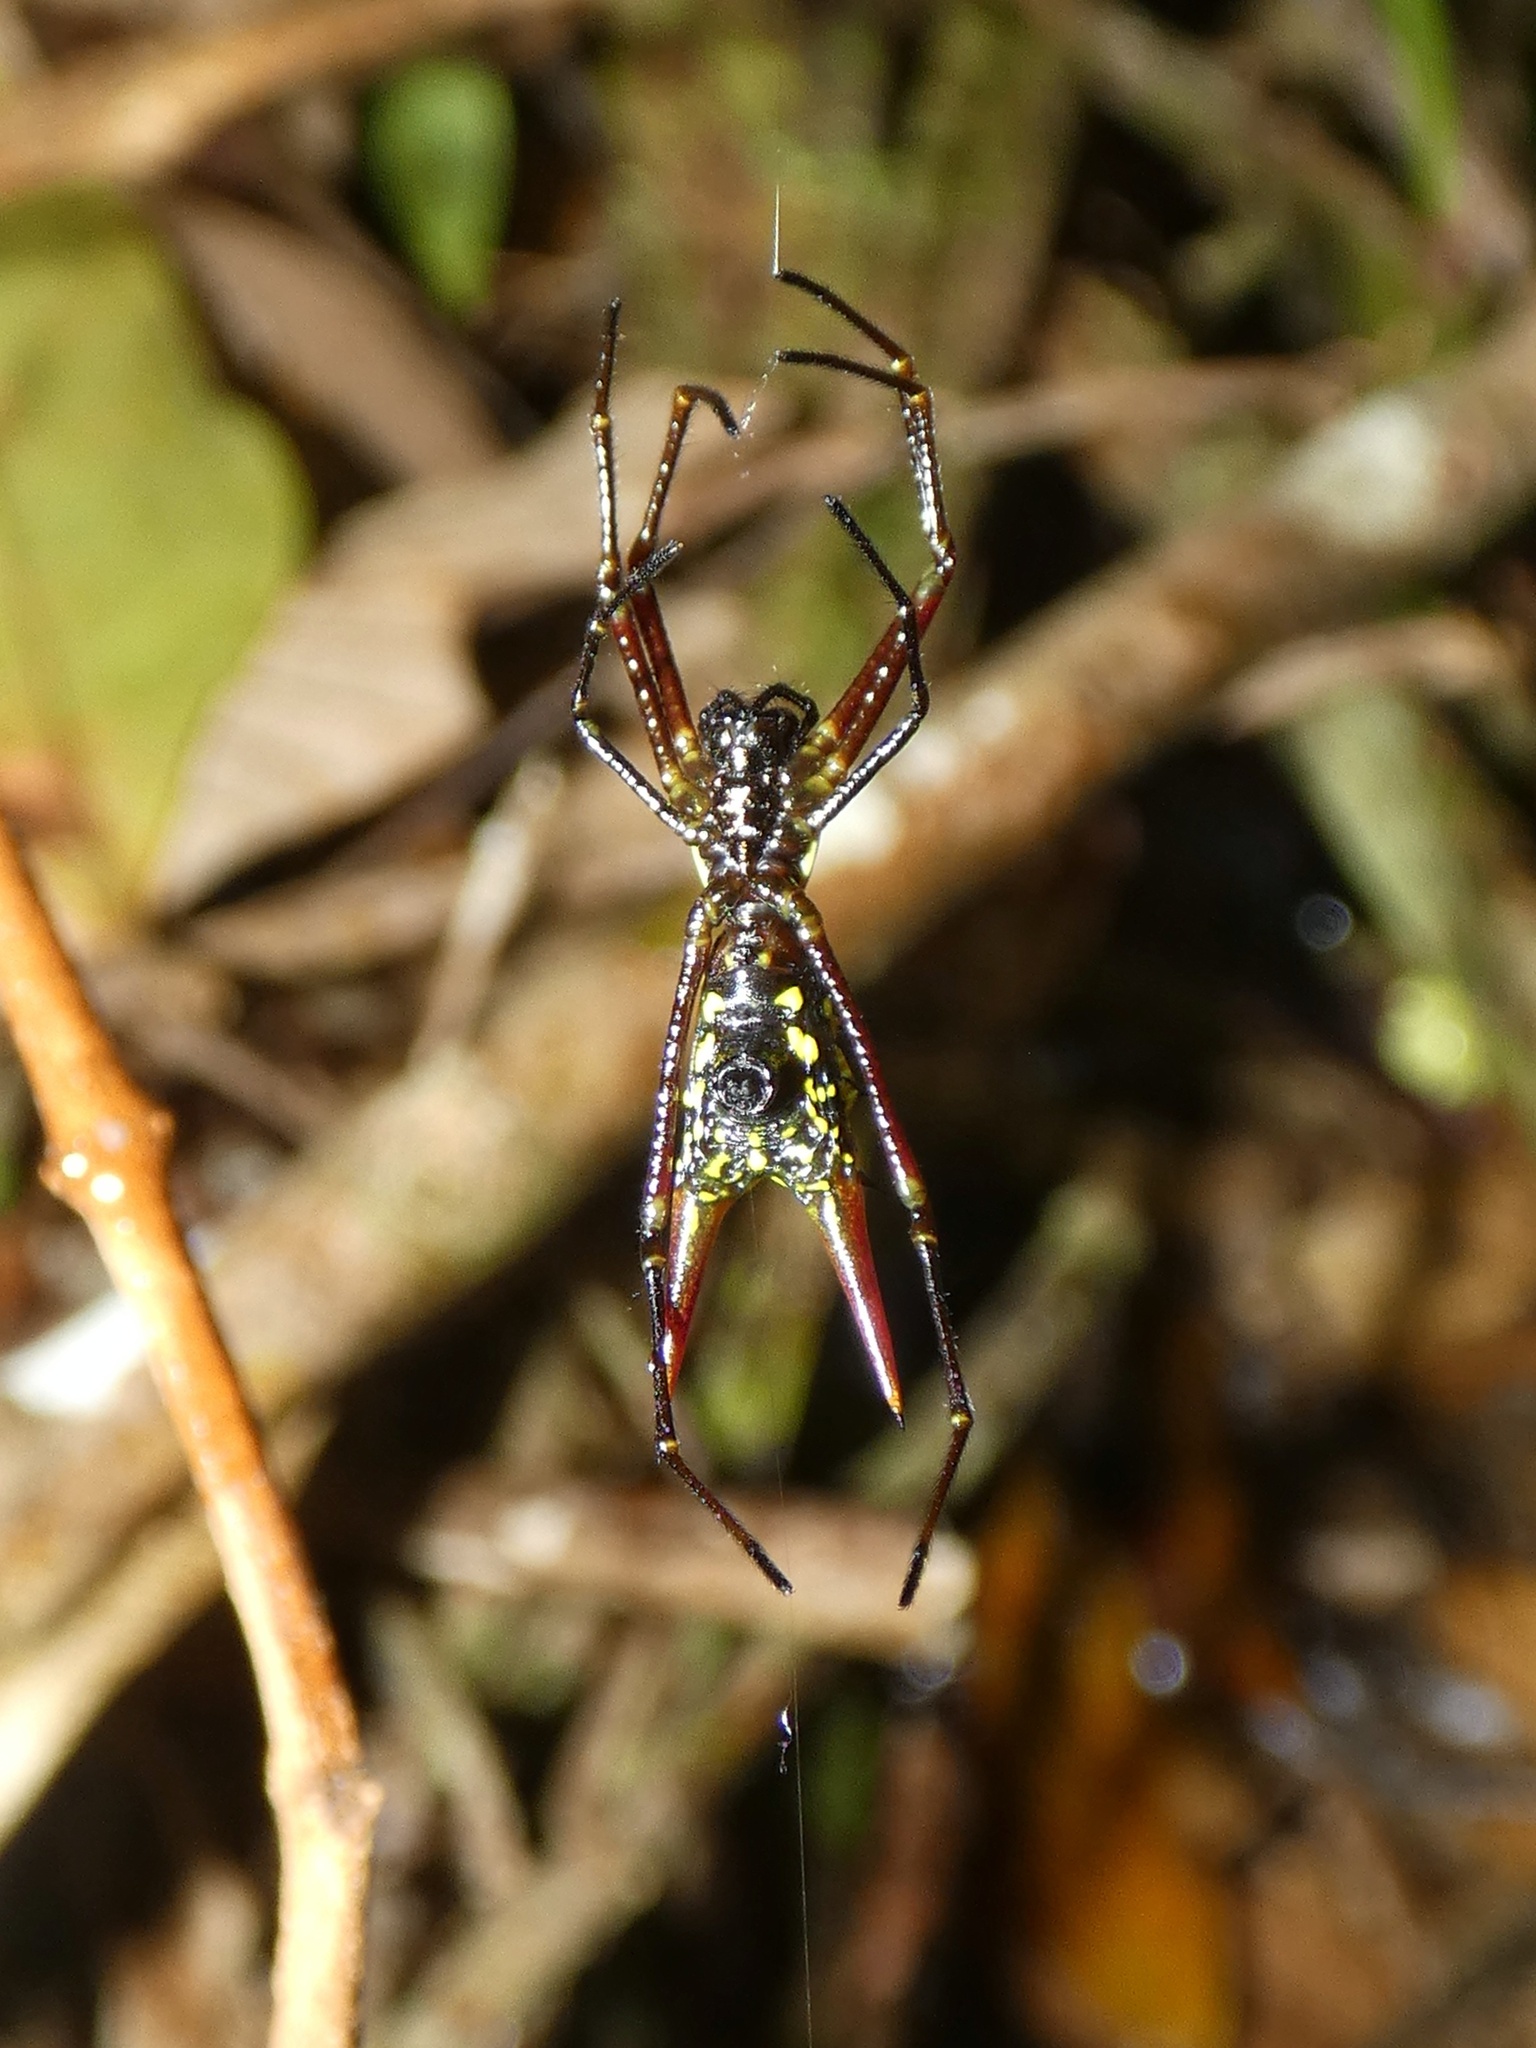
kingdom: Animalia
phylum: Arthropoda
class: Arachnida
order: Araneae
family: Araneidae
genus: Micrathena
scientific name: Micrathena donaldi
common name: Orb weavers
